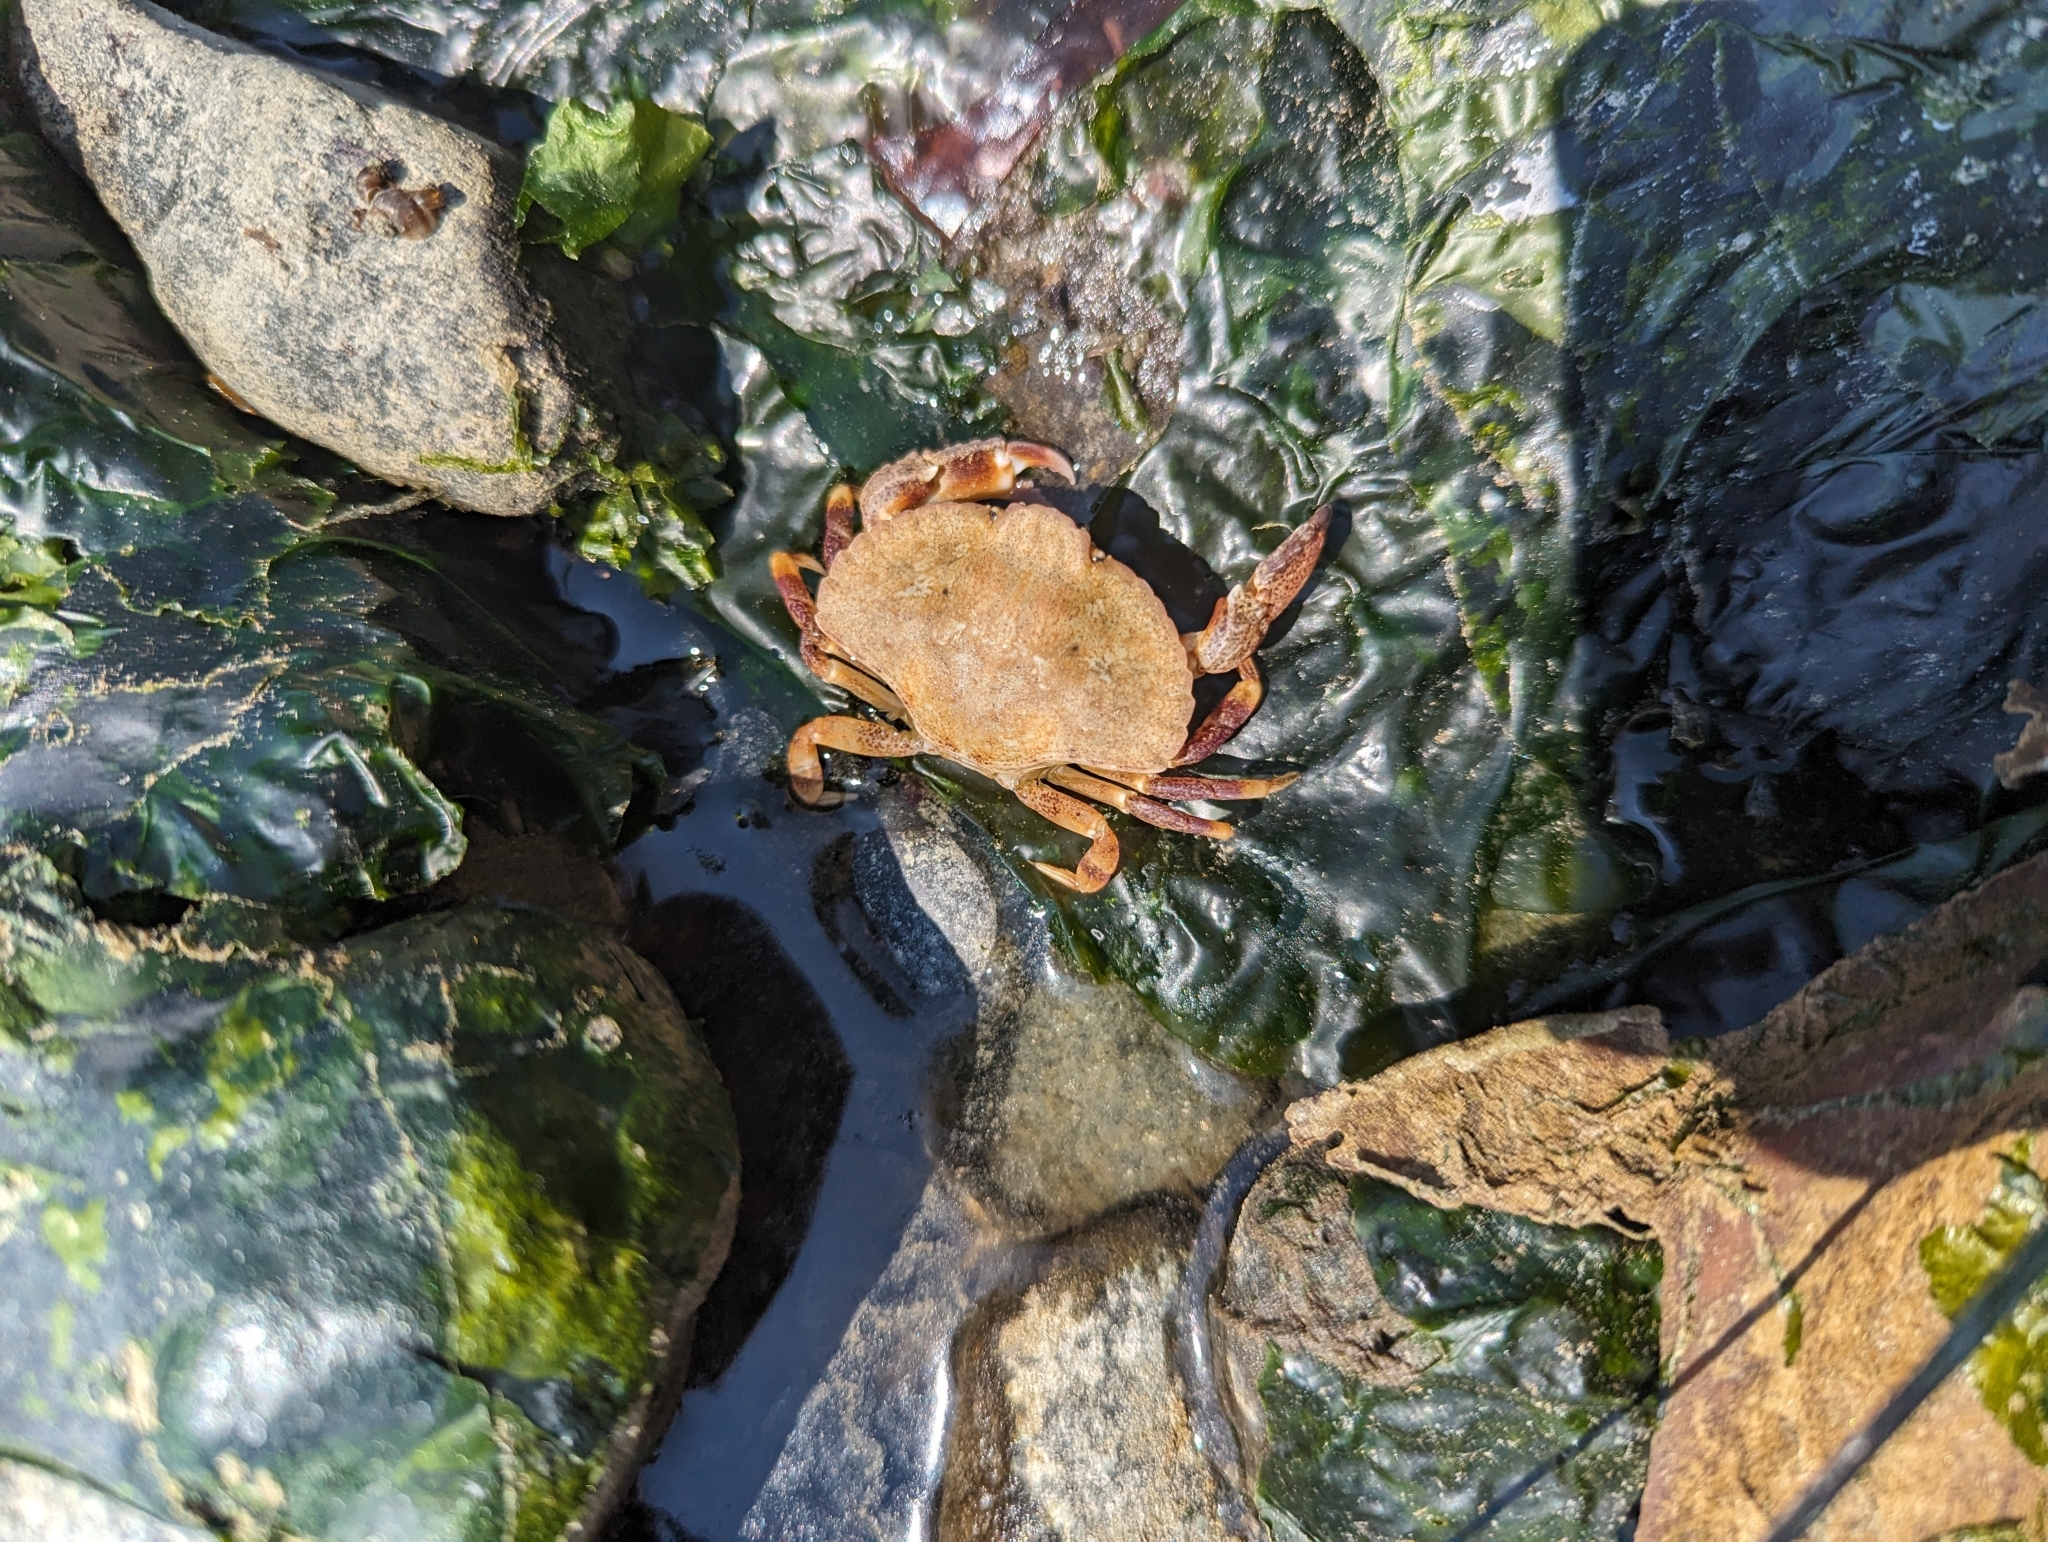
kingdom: Animalia
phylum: Arthropoda
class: Malacostraca
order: Decapoda
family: Cancridae
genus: Cancer
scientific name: Cancer productus
